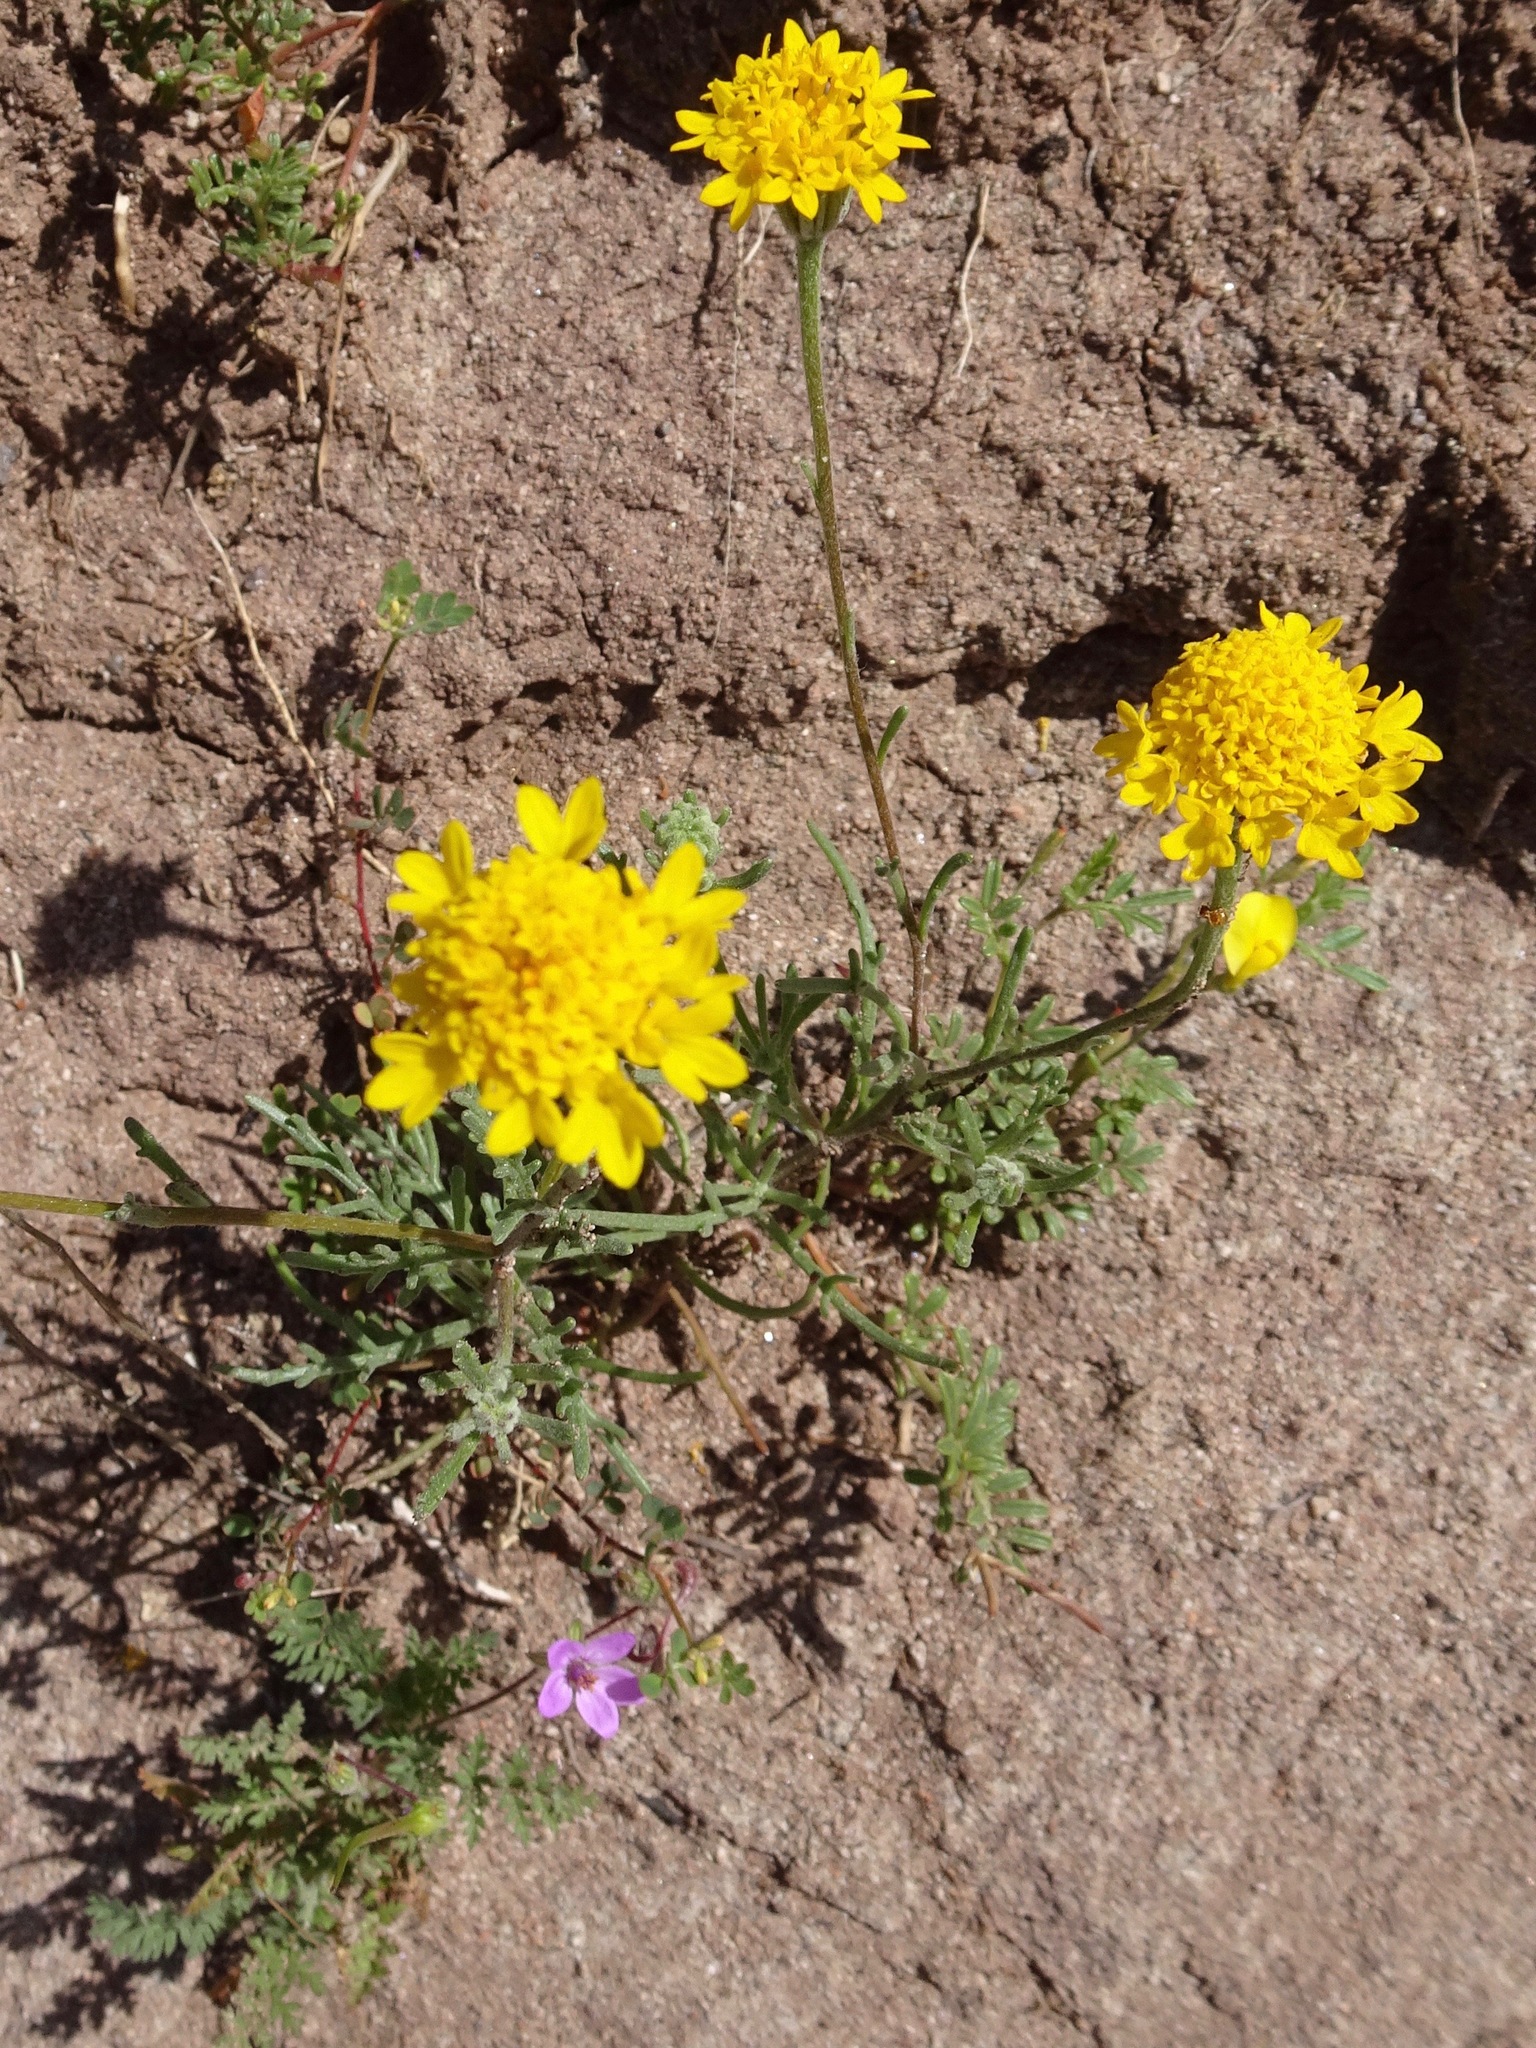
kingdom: Plantae
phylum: Tracheophyta
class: Magnoliopsida
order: Asterales
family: Asteraceae
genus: Chaenactis
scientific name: Chaenactis glabriuscula
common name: Yellow pincushion
